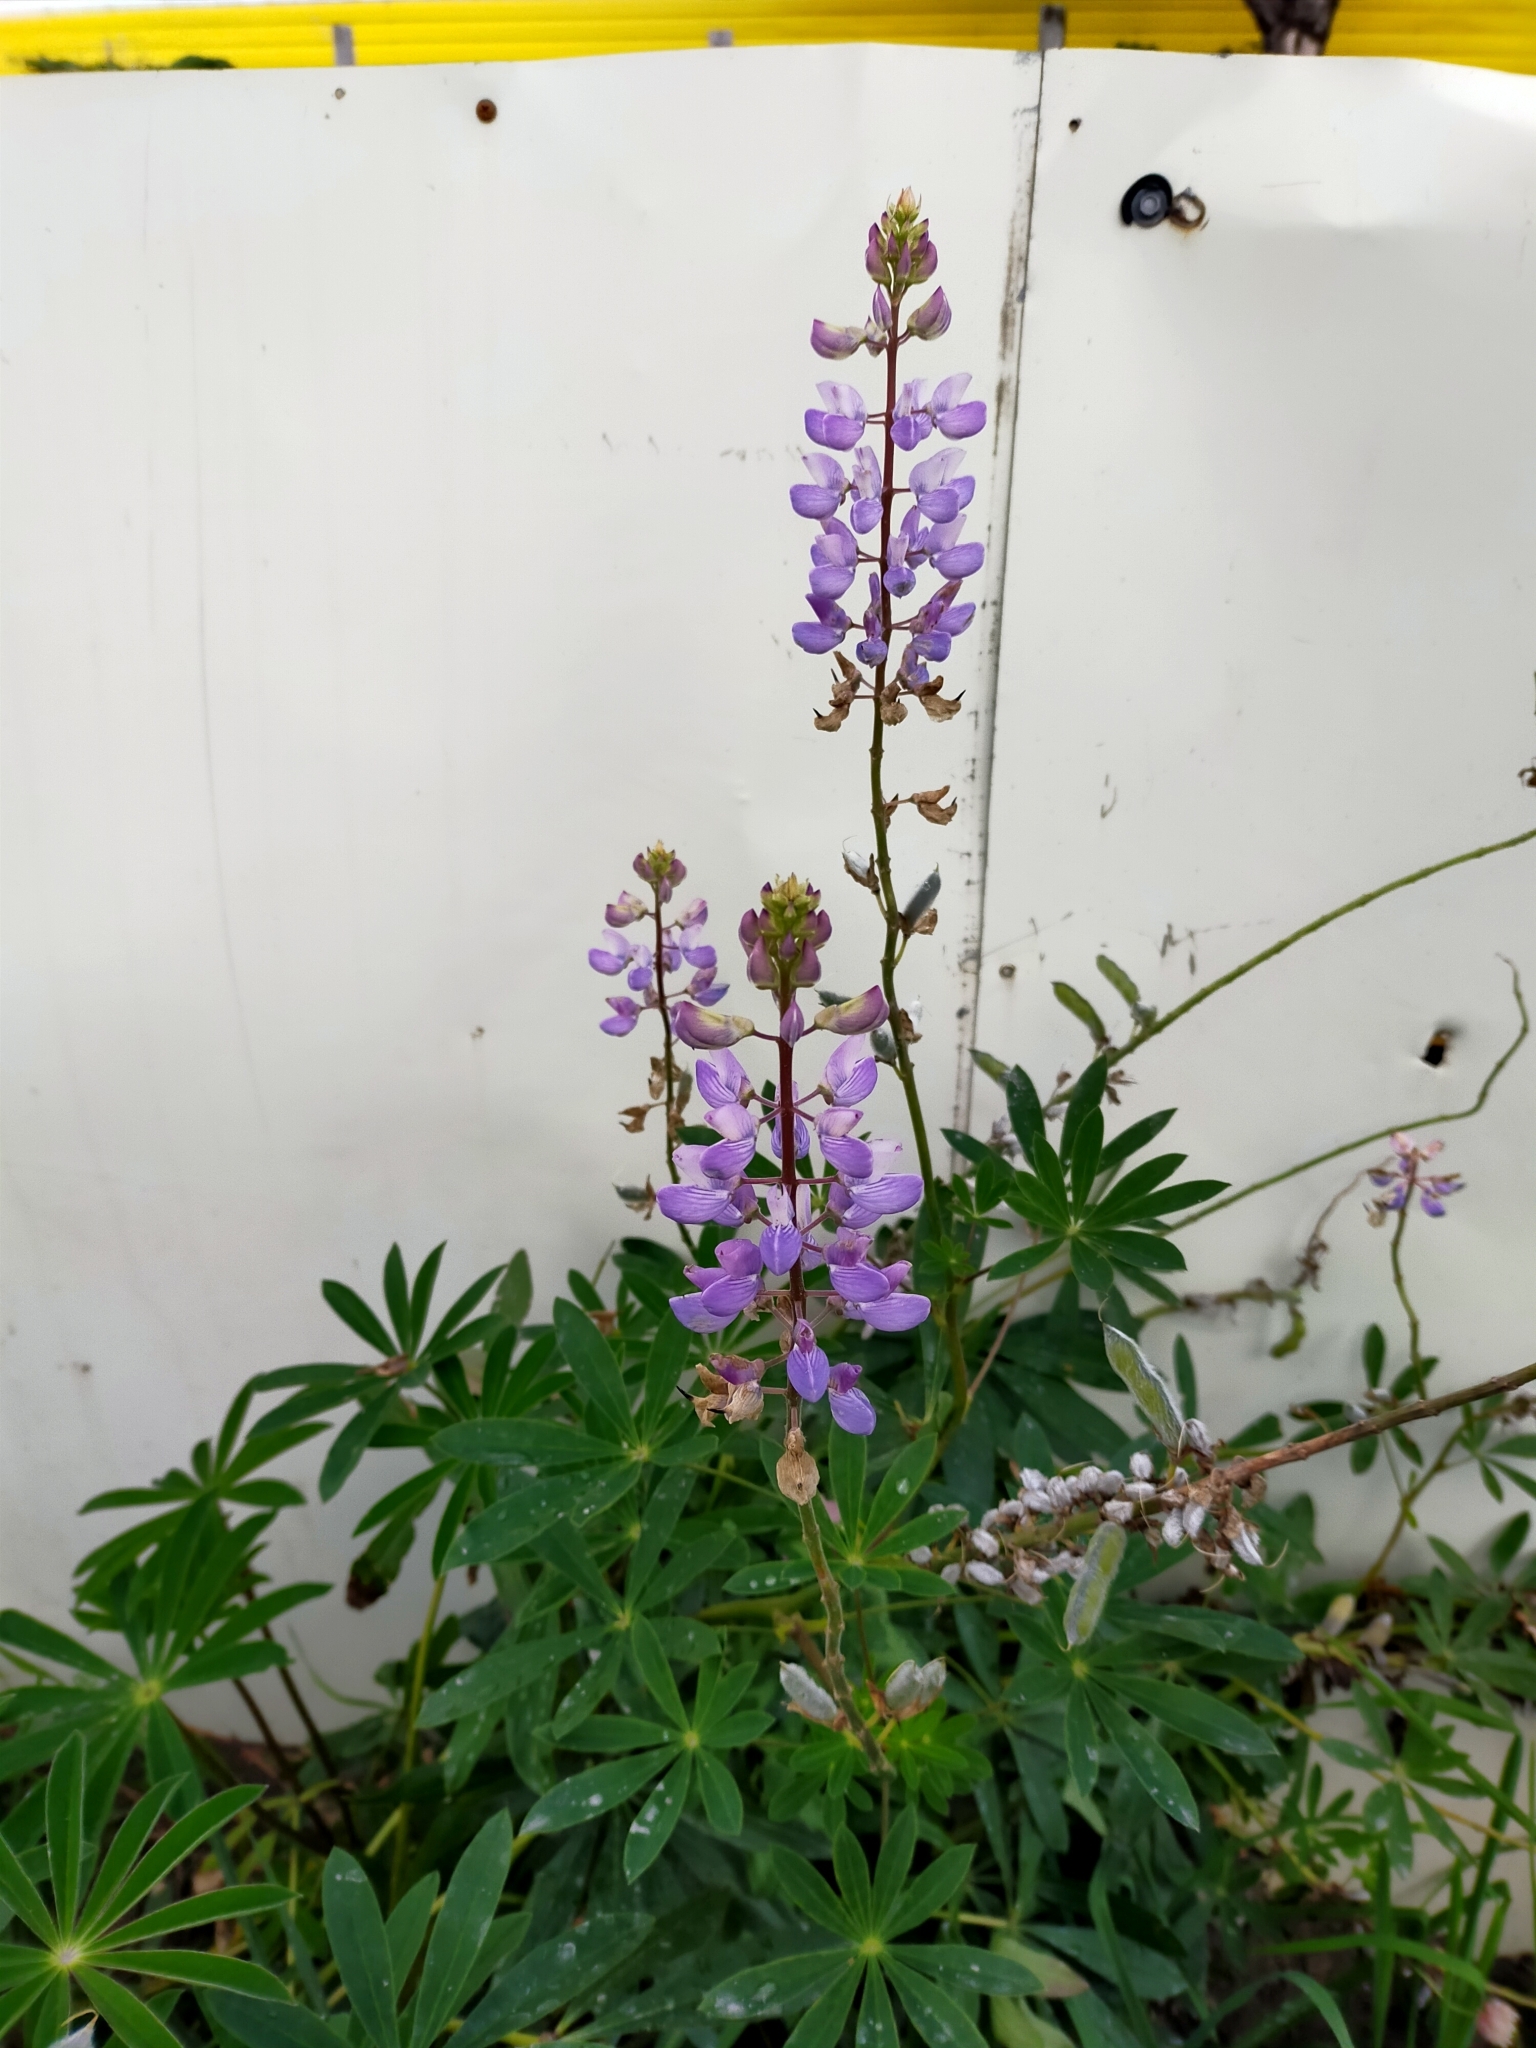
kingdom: Plantae
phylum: Tracheophyta
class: Magnoliopsida
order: Fabales
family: Fabaceae
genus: Lupinus
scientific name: Lupinus polyphyllus
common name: Garden lupin
